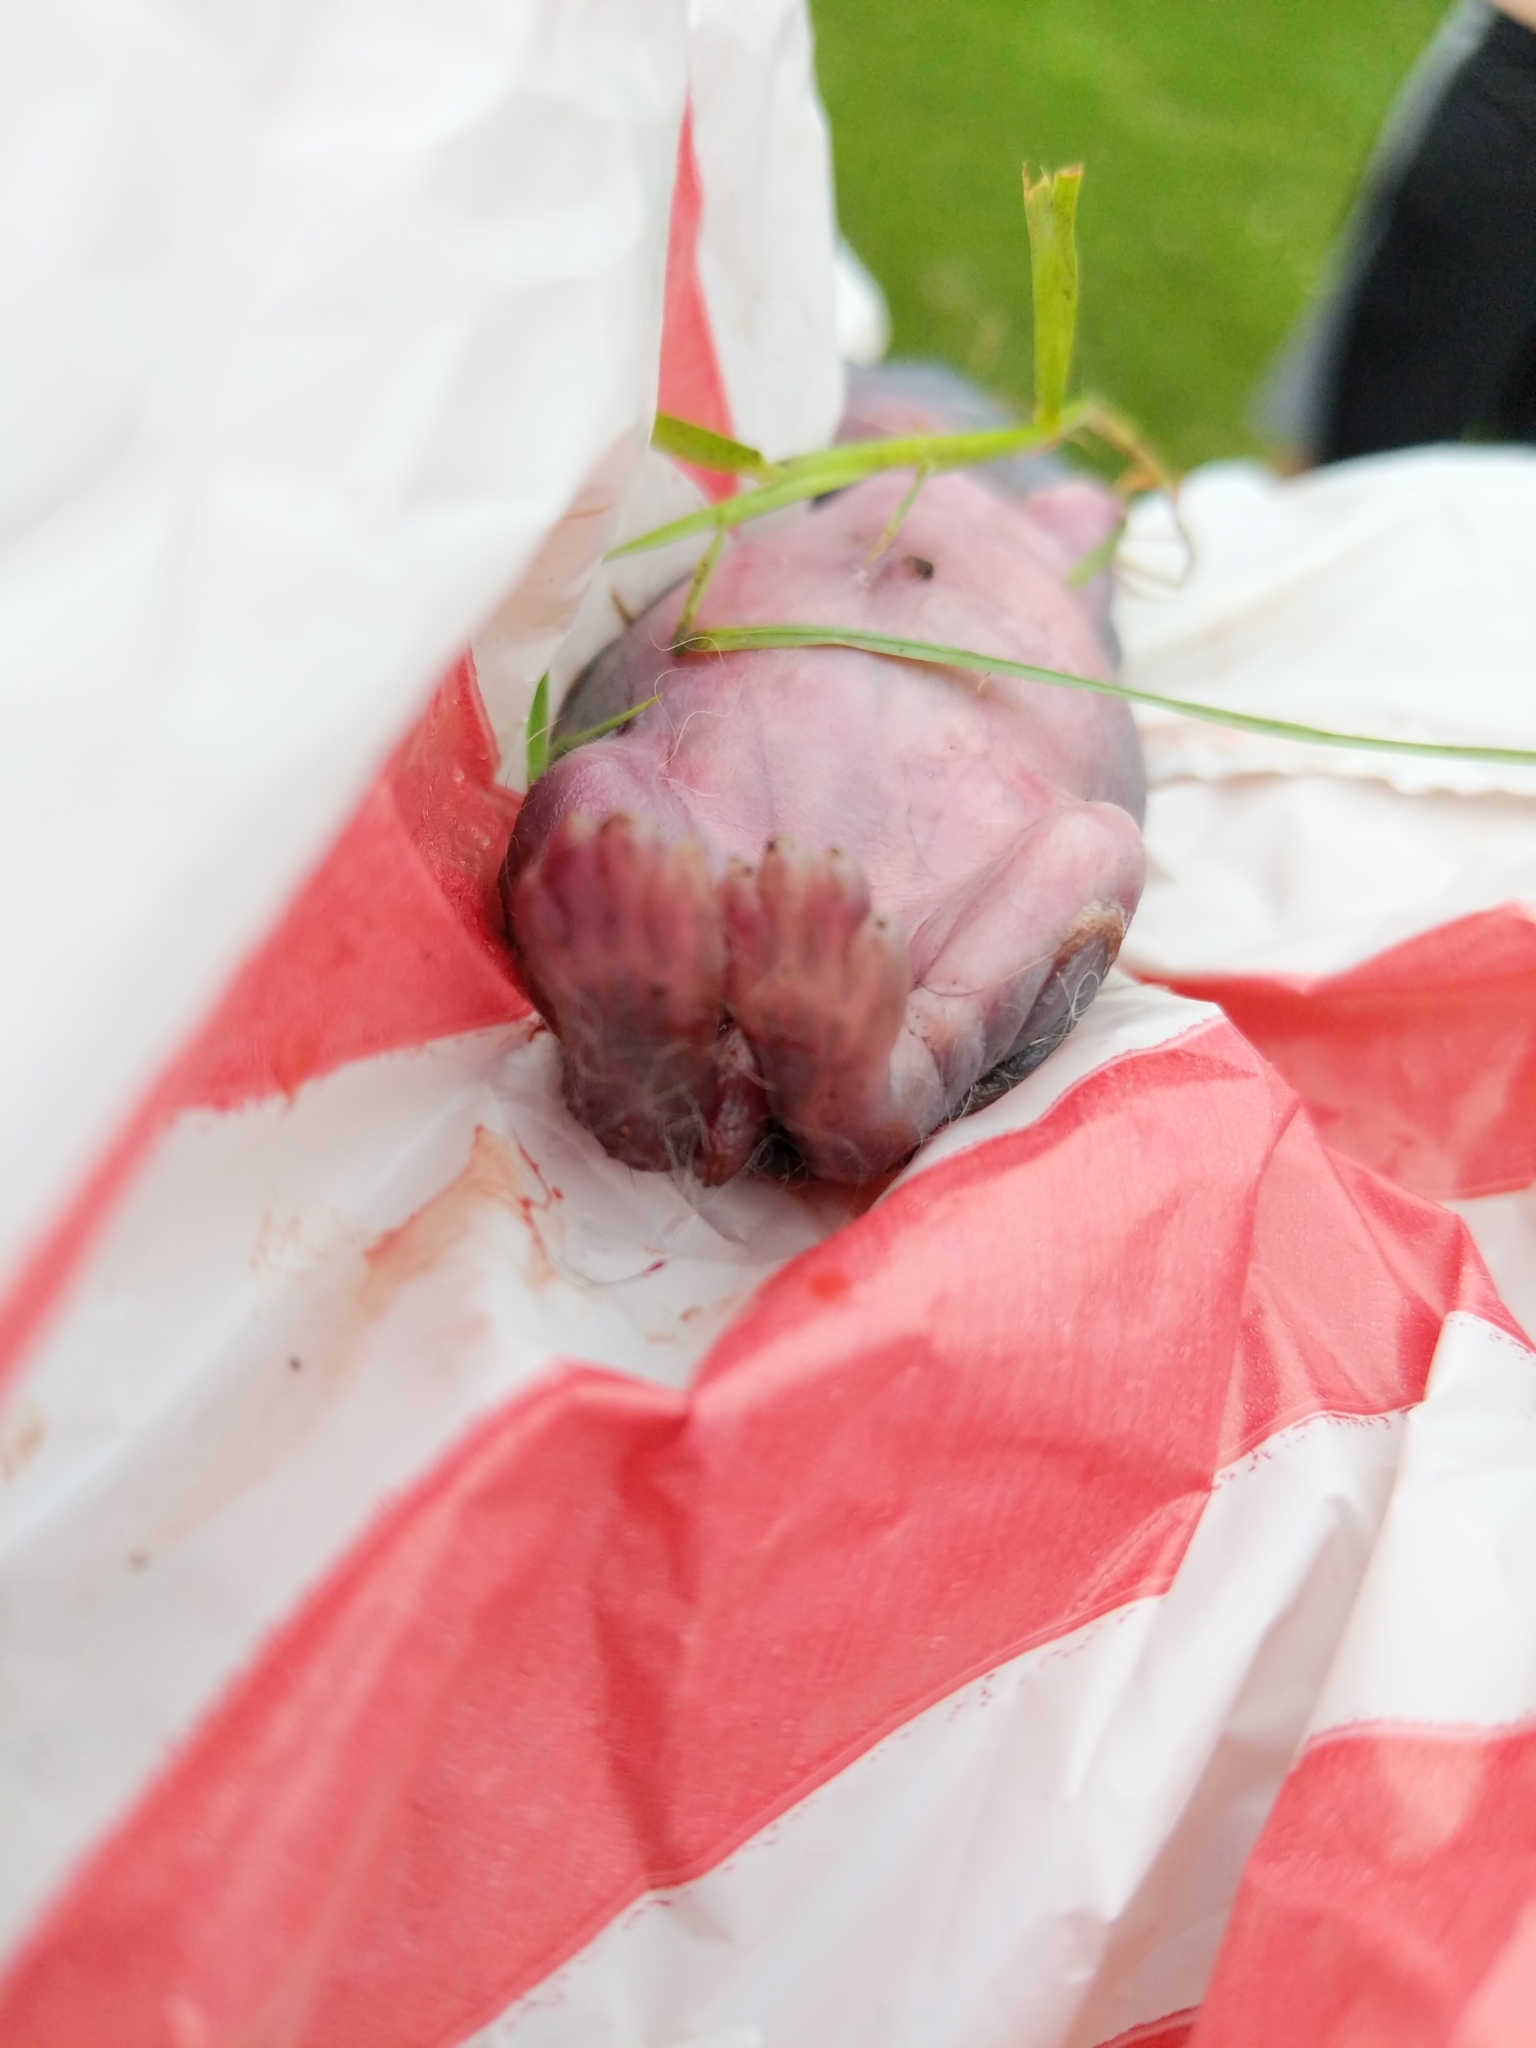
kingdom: Animalia
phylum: Chordata
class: Mammalia
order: Lagomorpha
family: Leporidae
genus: Sylvilagus
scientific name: Sylvilagus floridanus
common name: Eastern cottontail
